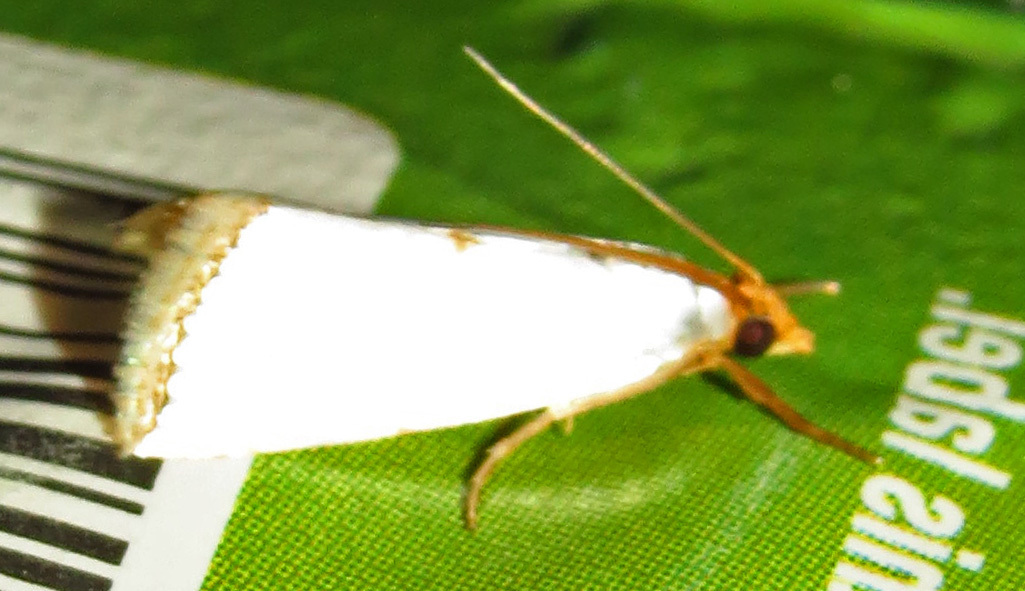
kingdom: Animalia
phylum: Arthropoda
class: Insecta
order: Lepidoptera
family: Crambidae
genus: Argyria
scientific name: Argyria nivalis
